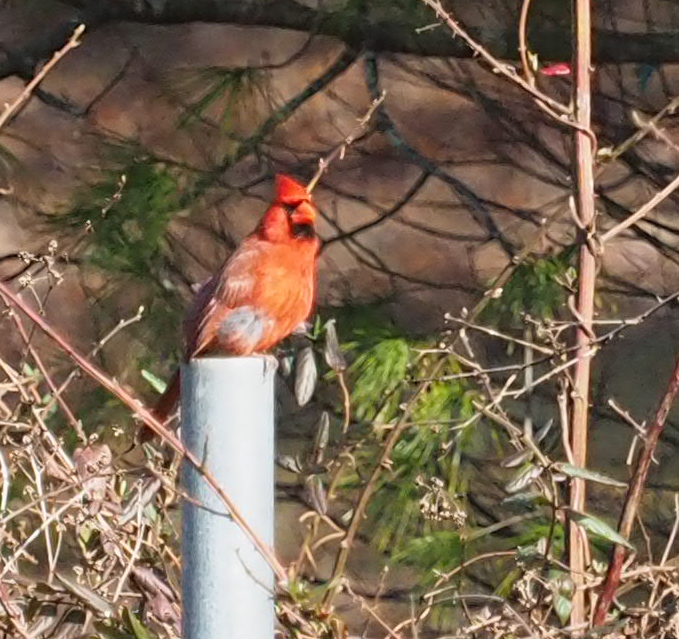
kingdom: Animalia
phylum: Chordata
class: Aves
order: Passeriformes
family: Cardinalidae
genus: Cardinalis
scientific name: Cardinalis cardinalis
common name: Northern cardinal
